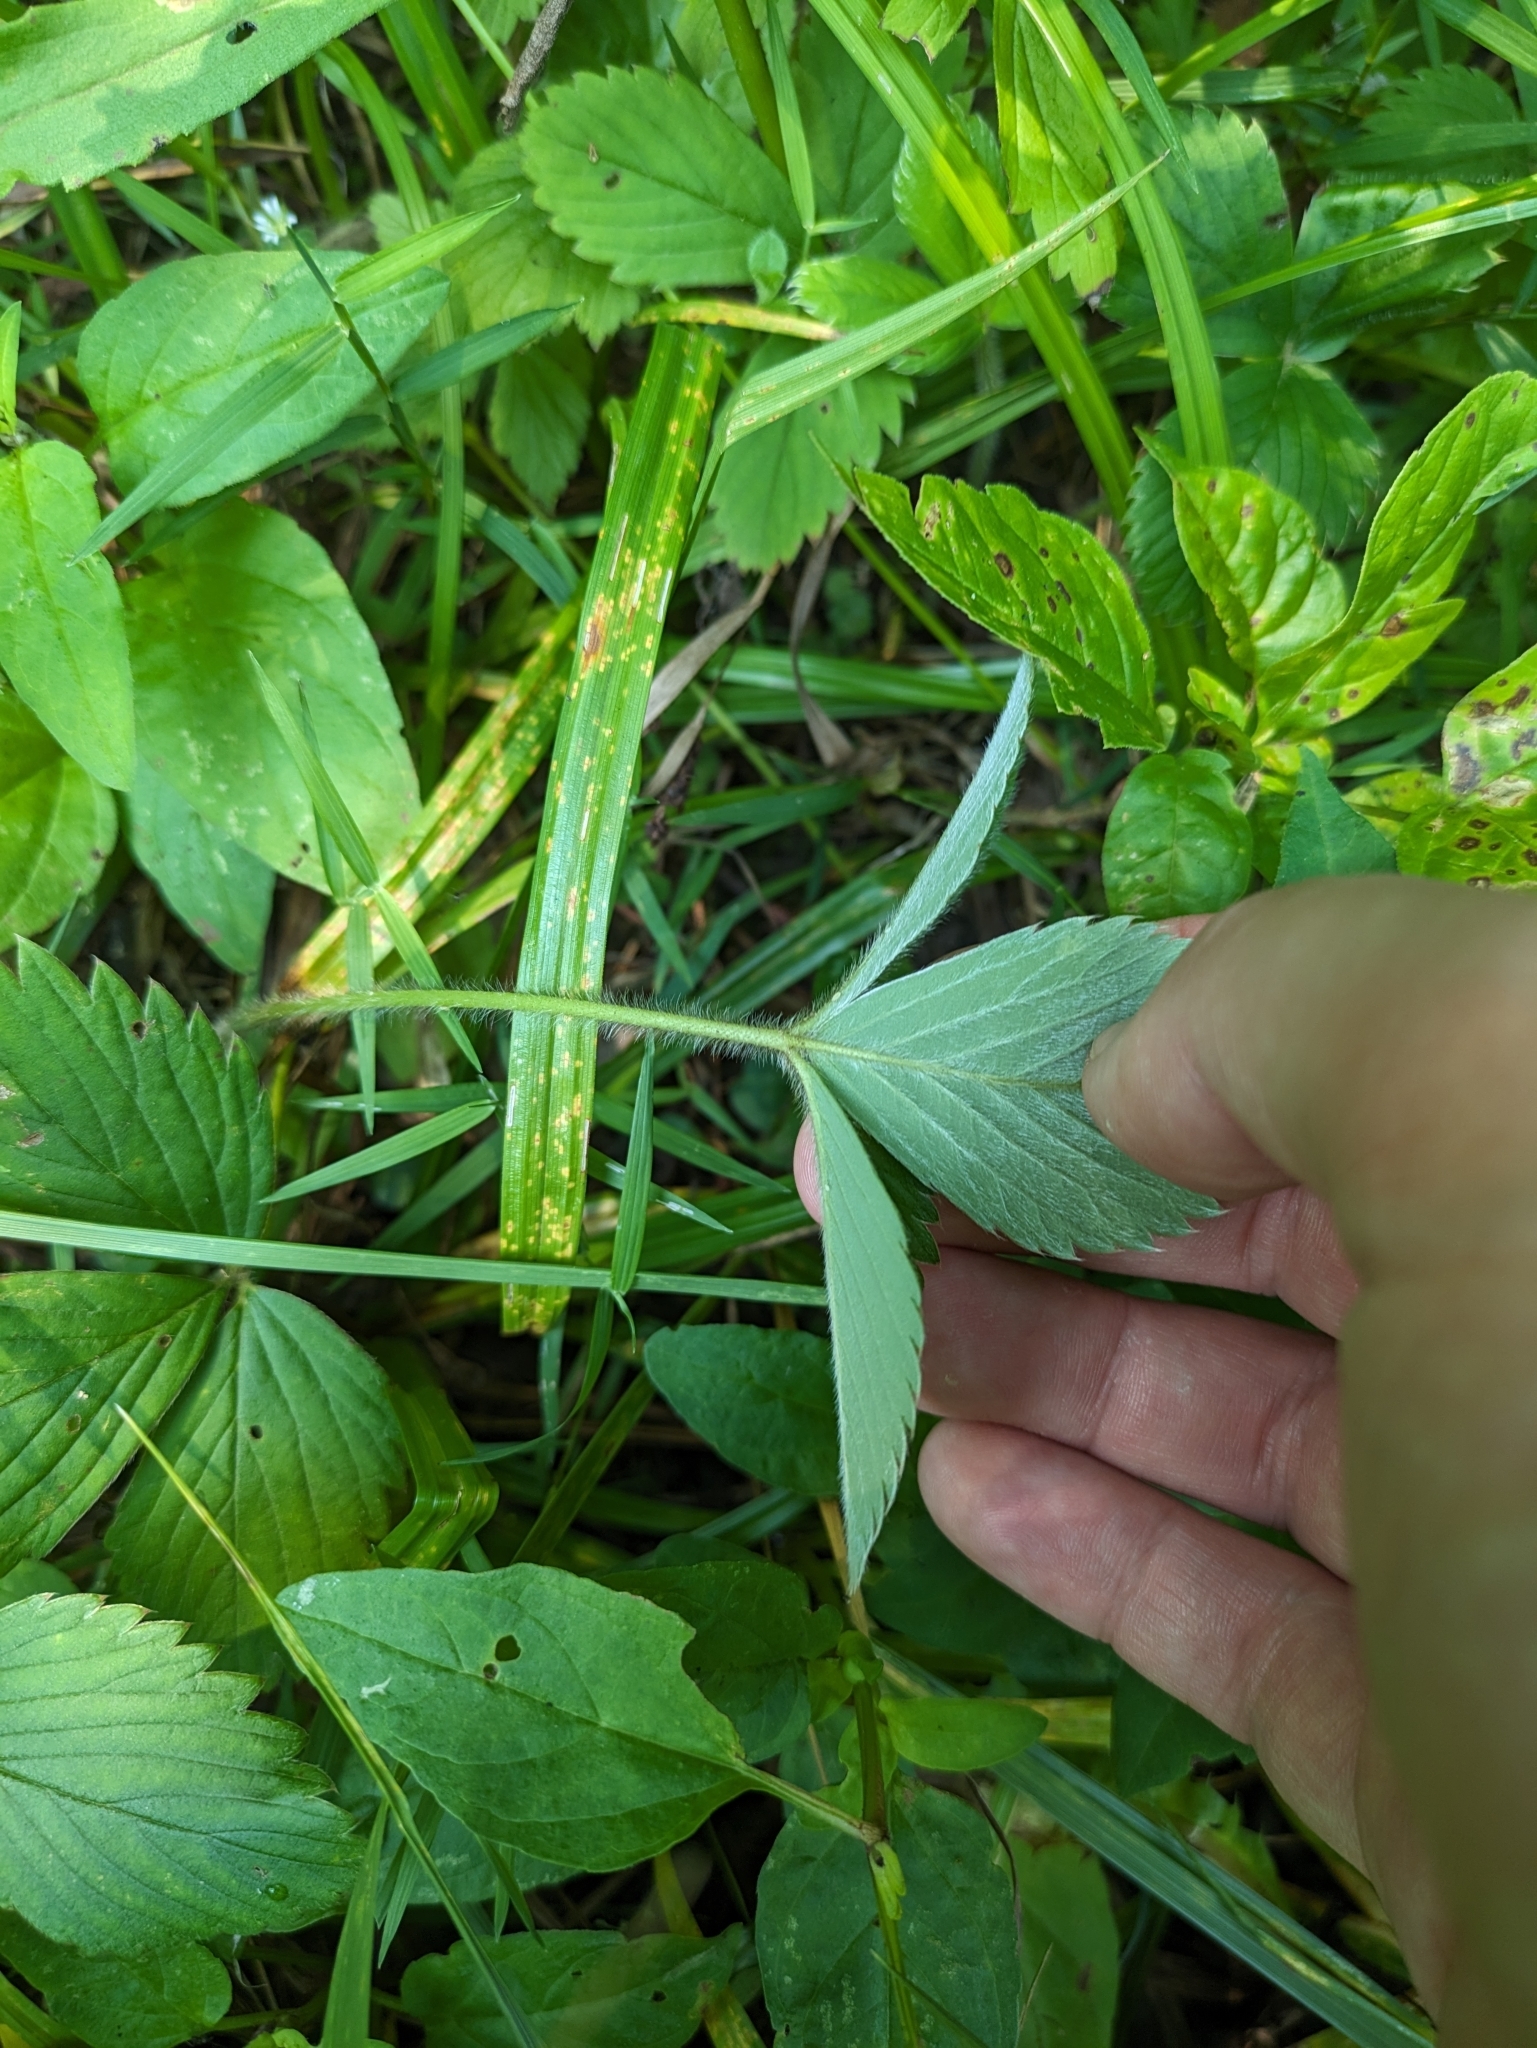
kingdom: Plantae
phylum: Tracheophyta
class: Magnoliopsida
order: Rosales
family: Rosaceae
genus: Fragaria
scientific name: Fragaria virginiana
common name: Thickleaved wild strawberry
